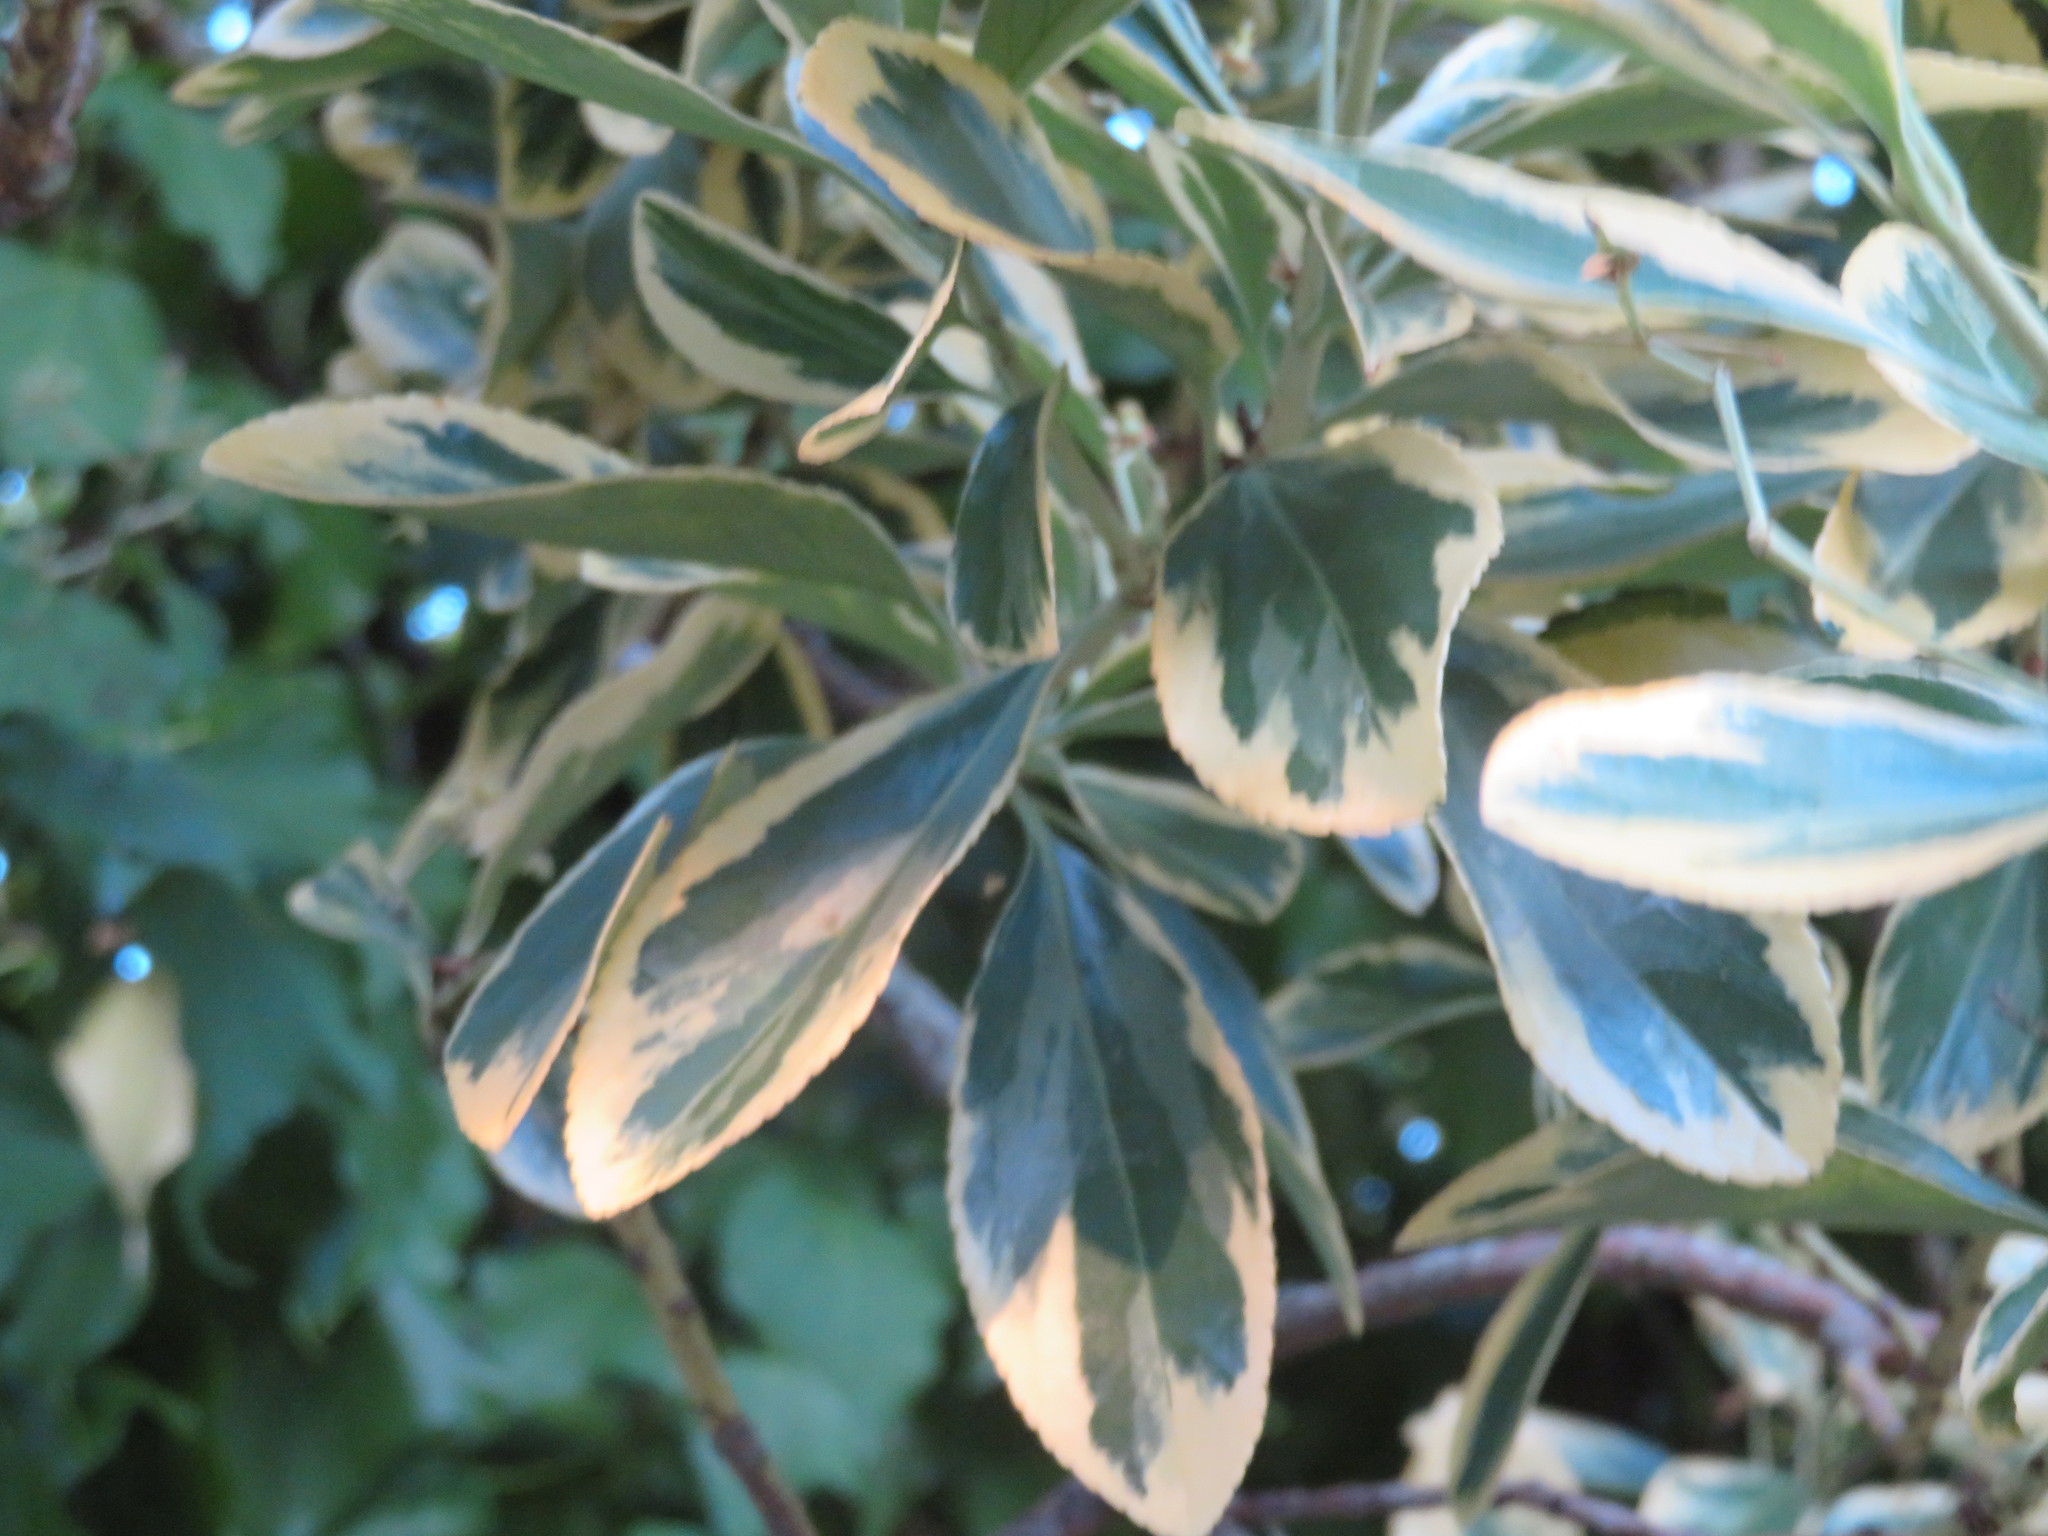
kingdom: Plantae
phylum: Tracheophyta
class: Magnoliopsida
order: Celastrales
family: Celastraceae
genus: Euonymus
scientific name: Euonymus japonicus
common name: Japanese spindletree
